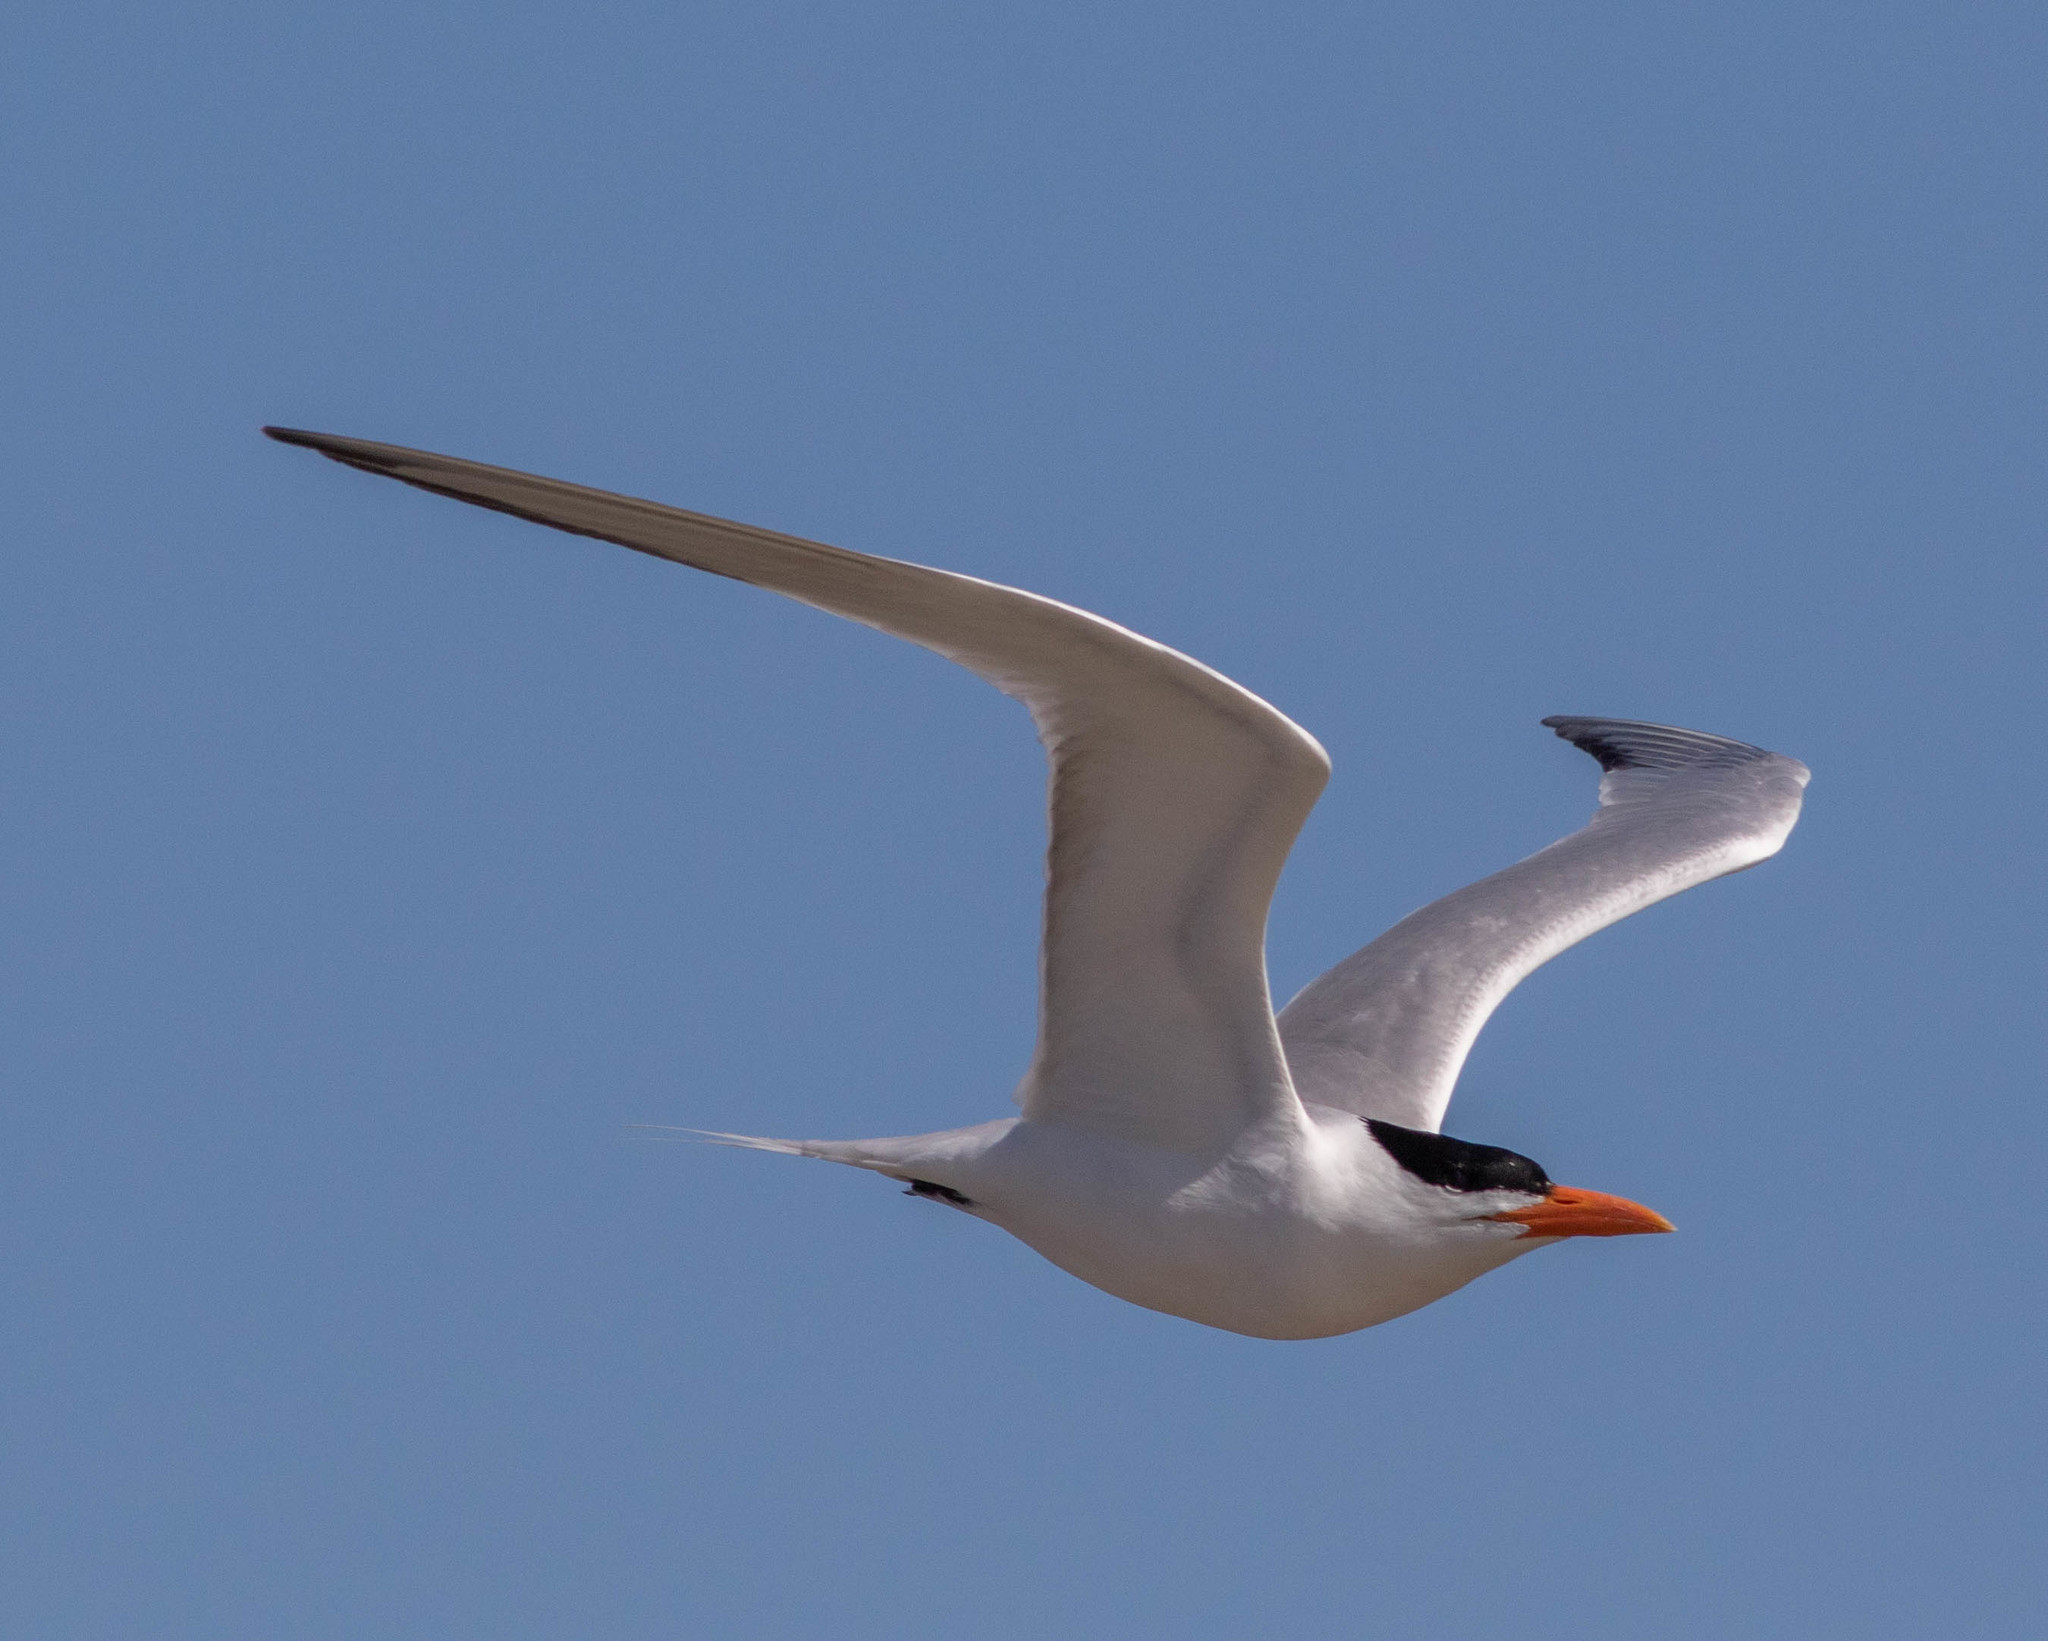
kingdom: Animalia
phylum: Chordata
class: Aves
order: Charadriiformes
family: Laridae
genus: Thalasseus
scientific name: Thalasseus maximus
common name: Royal tern
